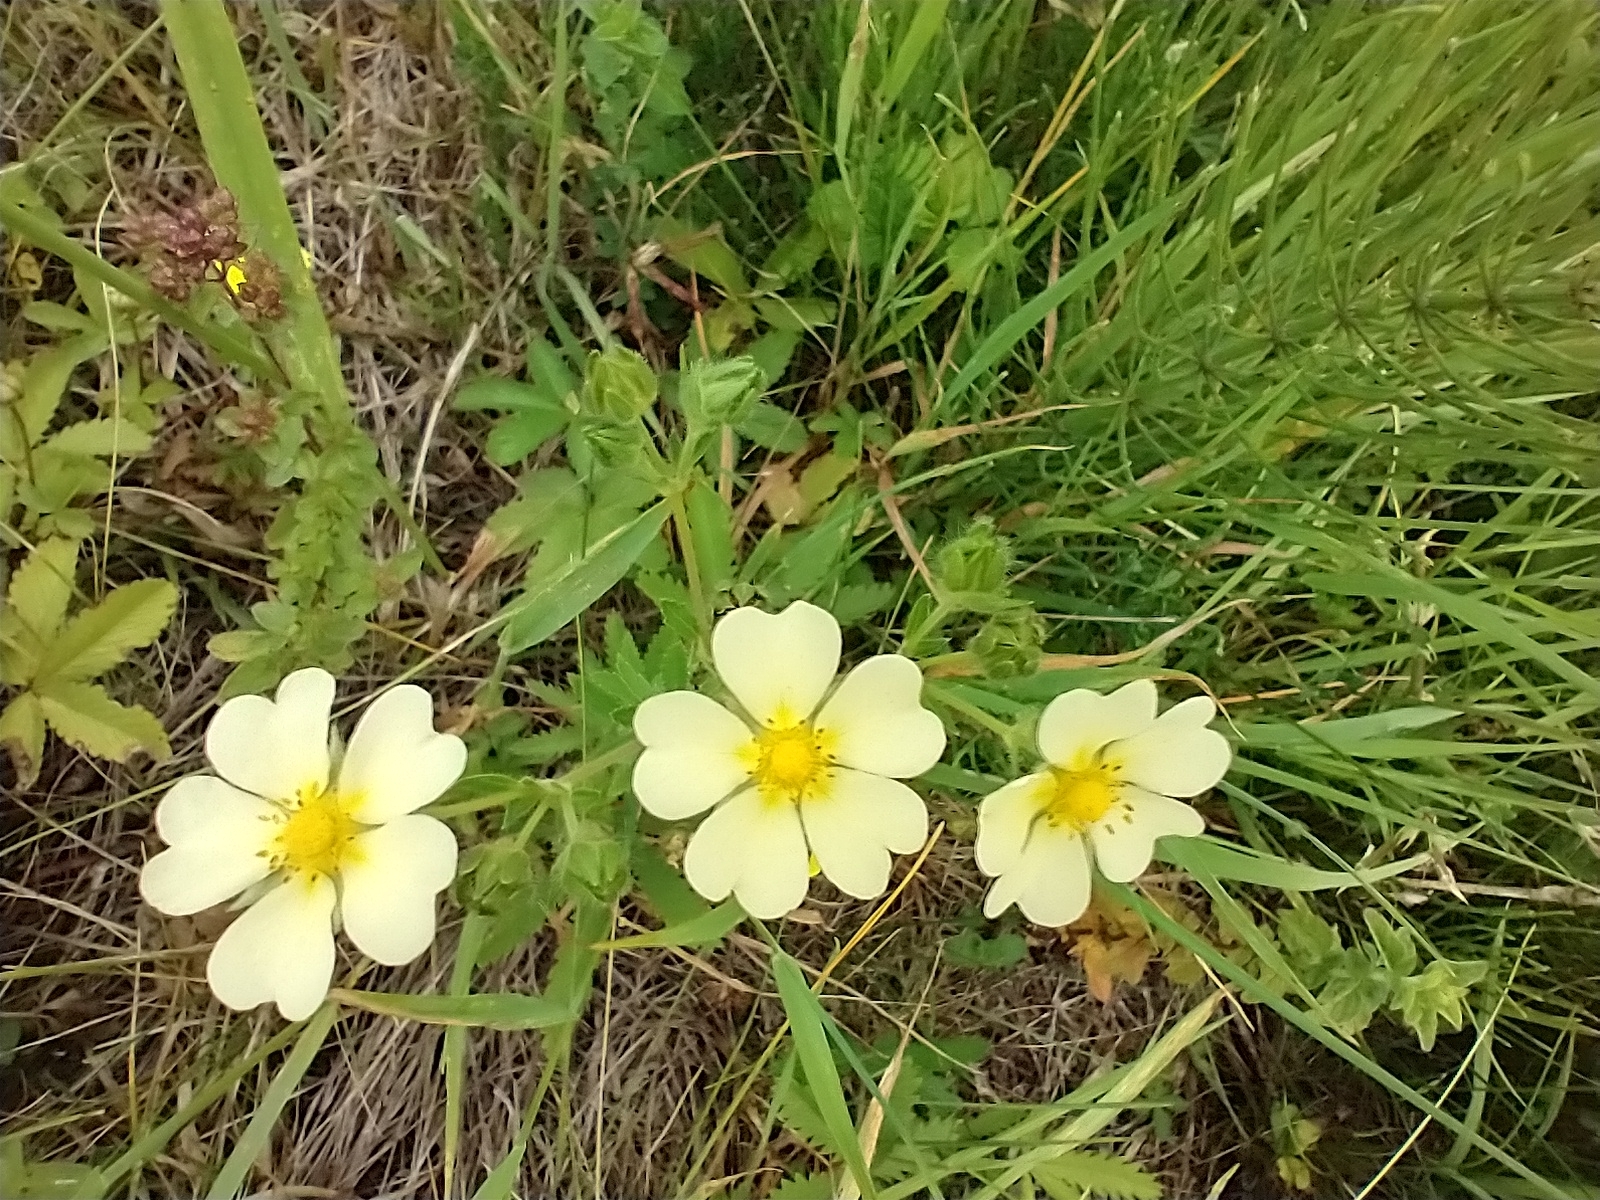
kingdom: Plantae
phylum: Tracheophyta
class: Magnoliopsida
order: Rosales
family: Rosaceae
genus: Potentilla
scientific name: Potentilla recta
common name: Sulphur cinquefoil
